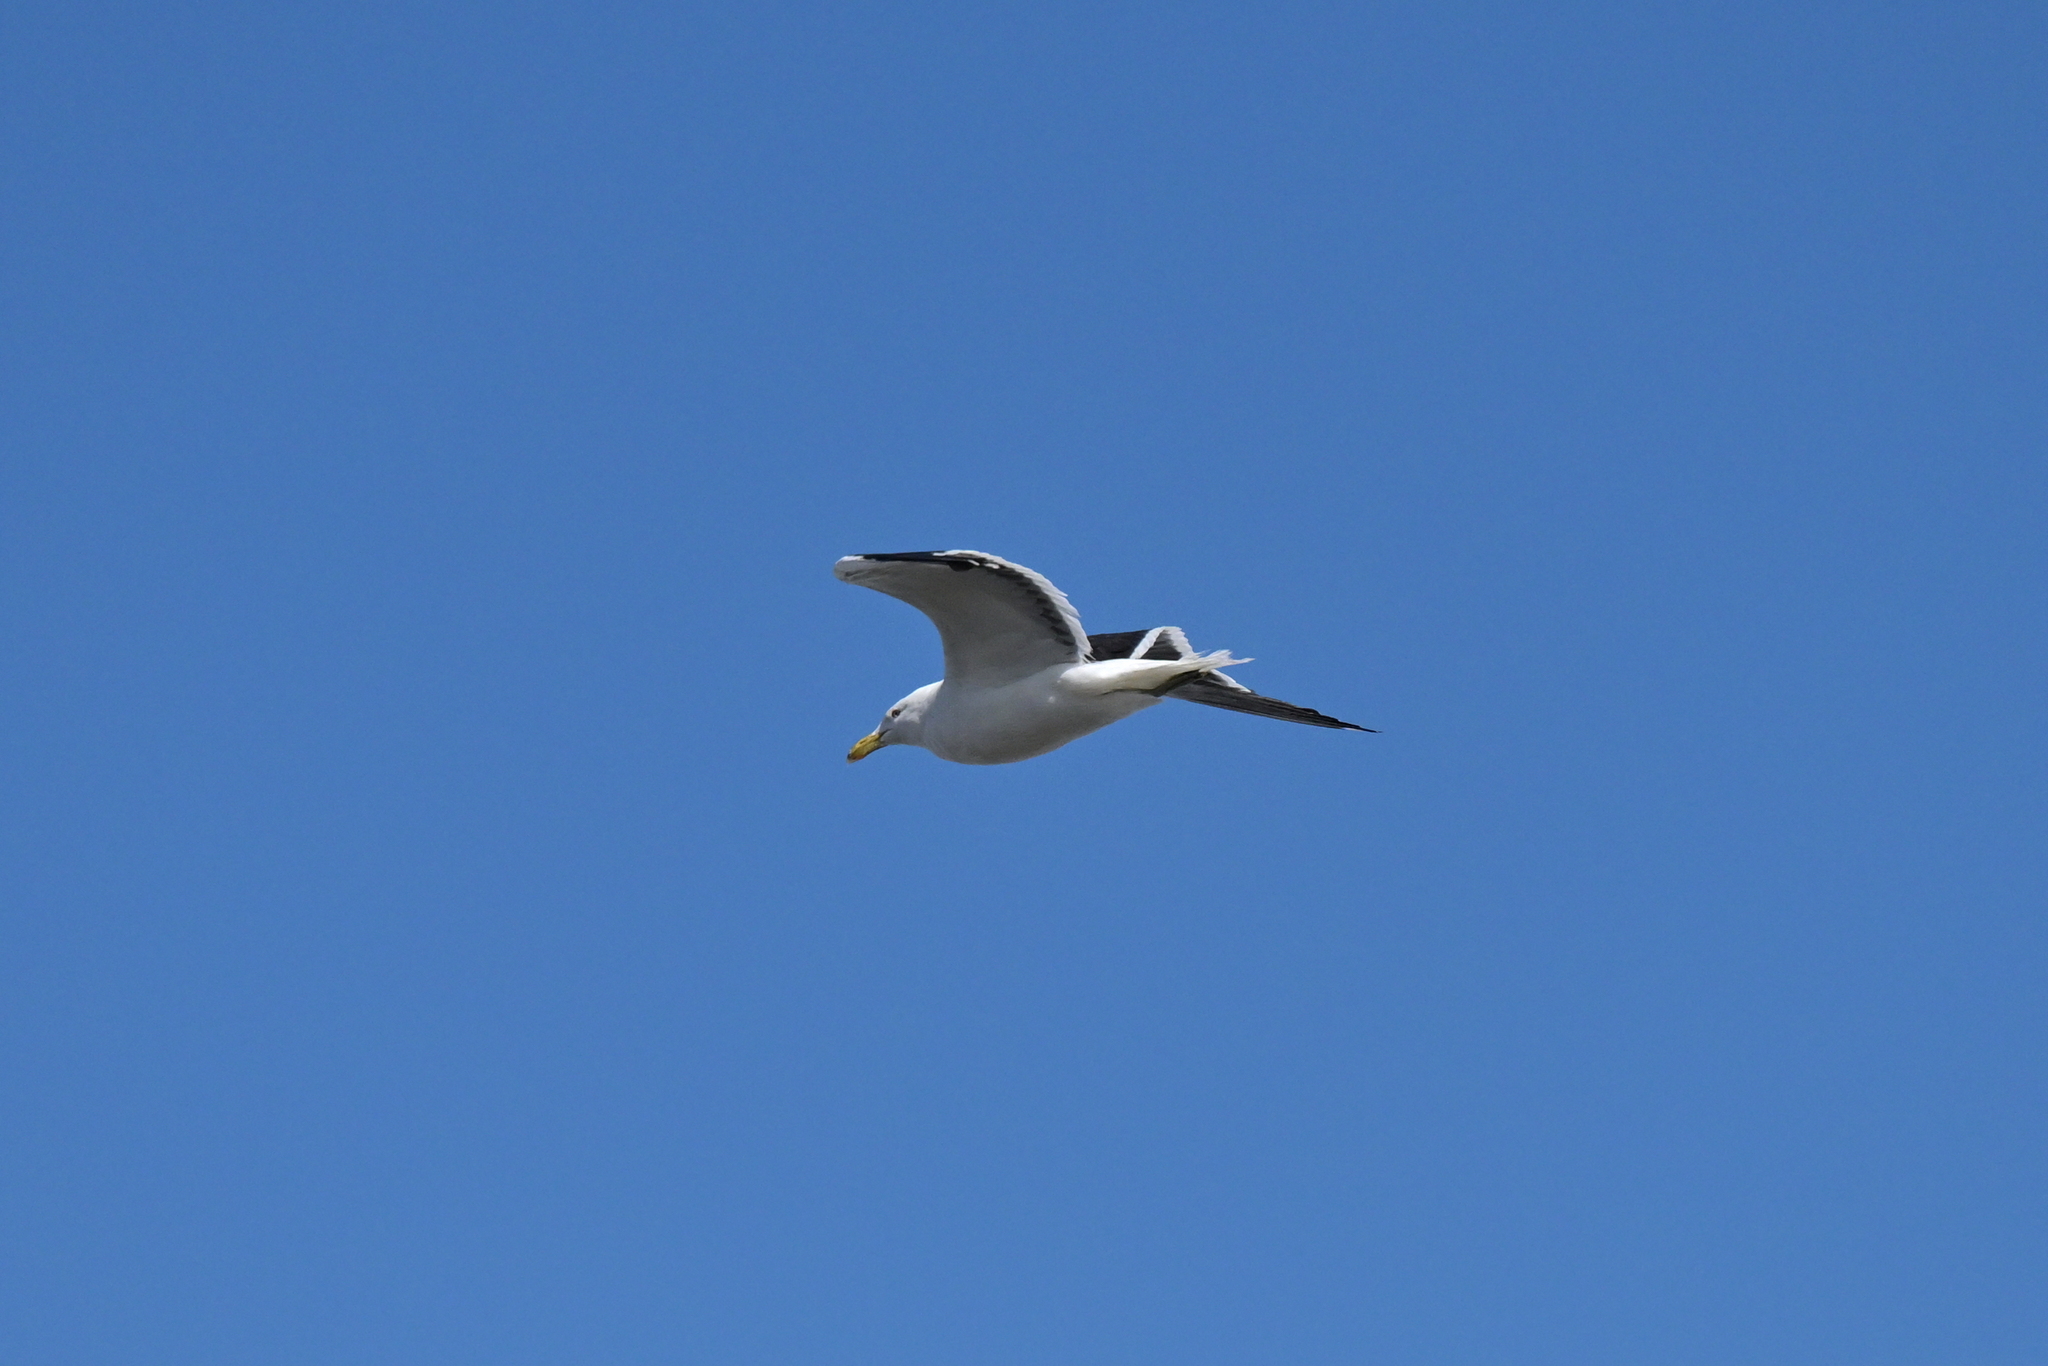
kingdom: Animalia
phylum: Chordata
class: Aves
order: Charadriiformes
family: Laridae
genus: Larus
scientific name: Larus dominicanus
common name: Kelp gull
